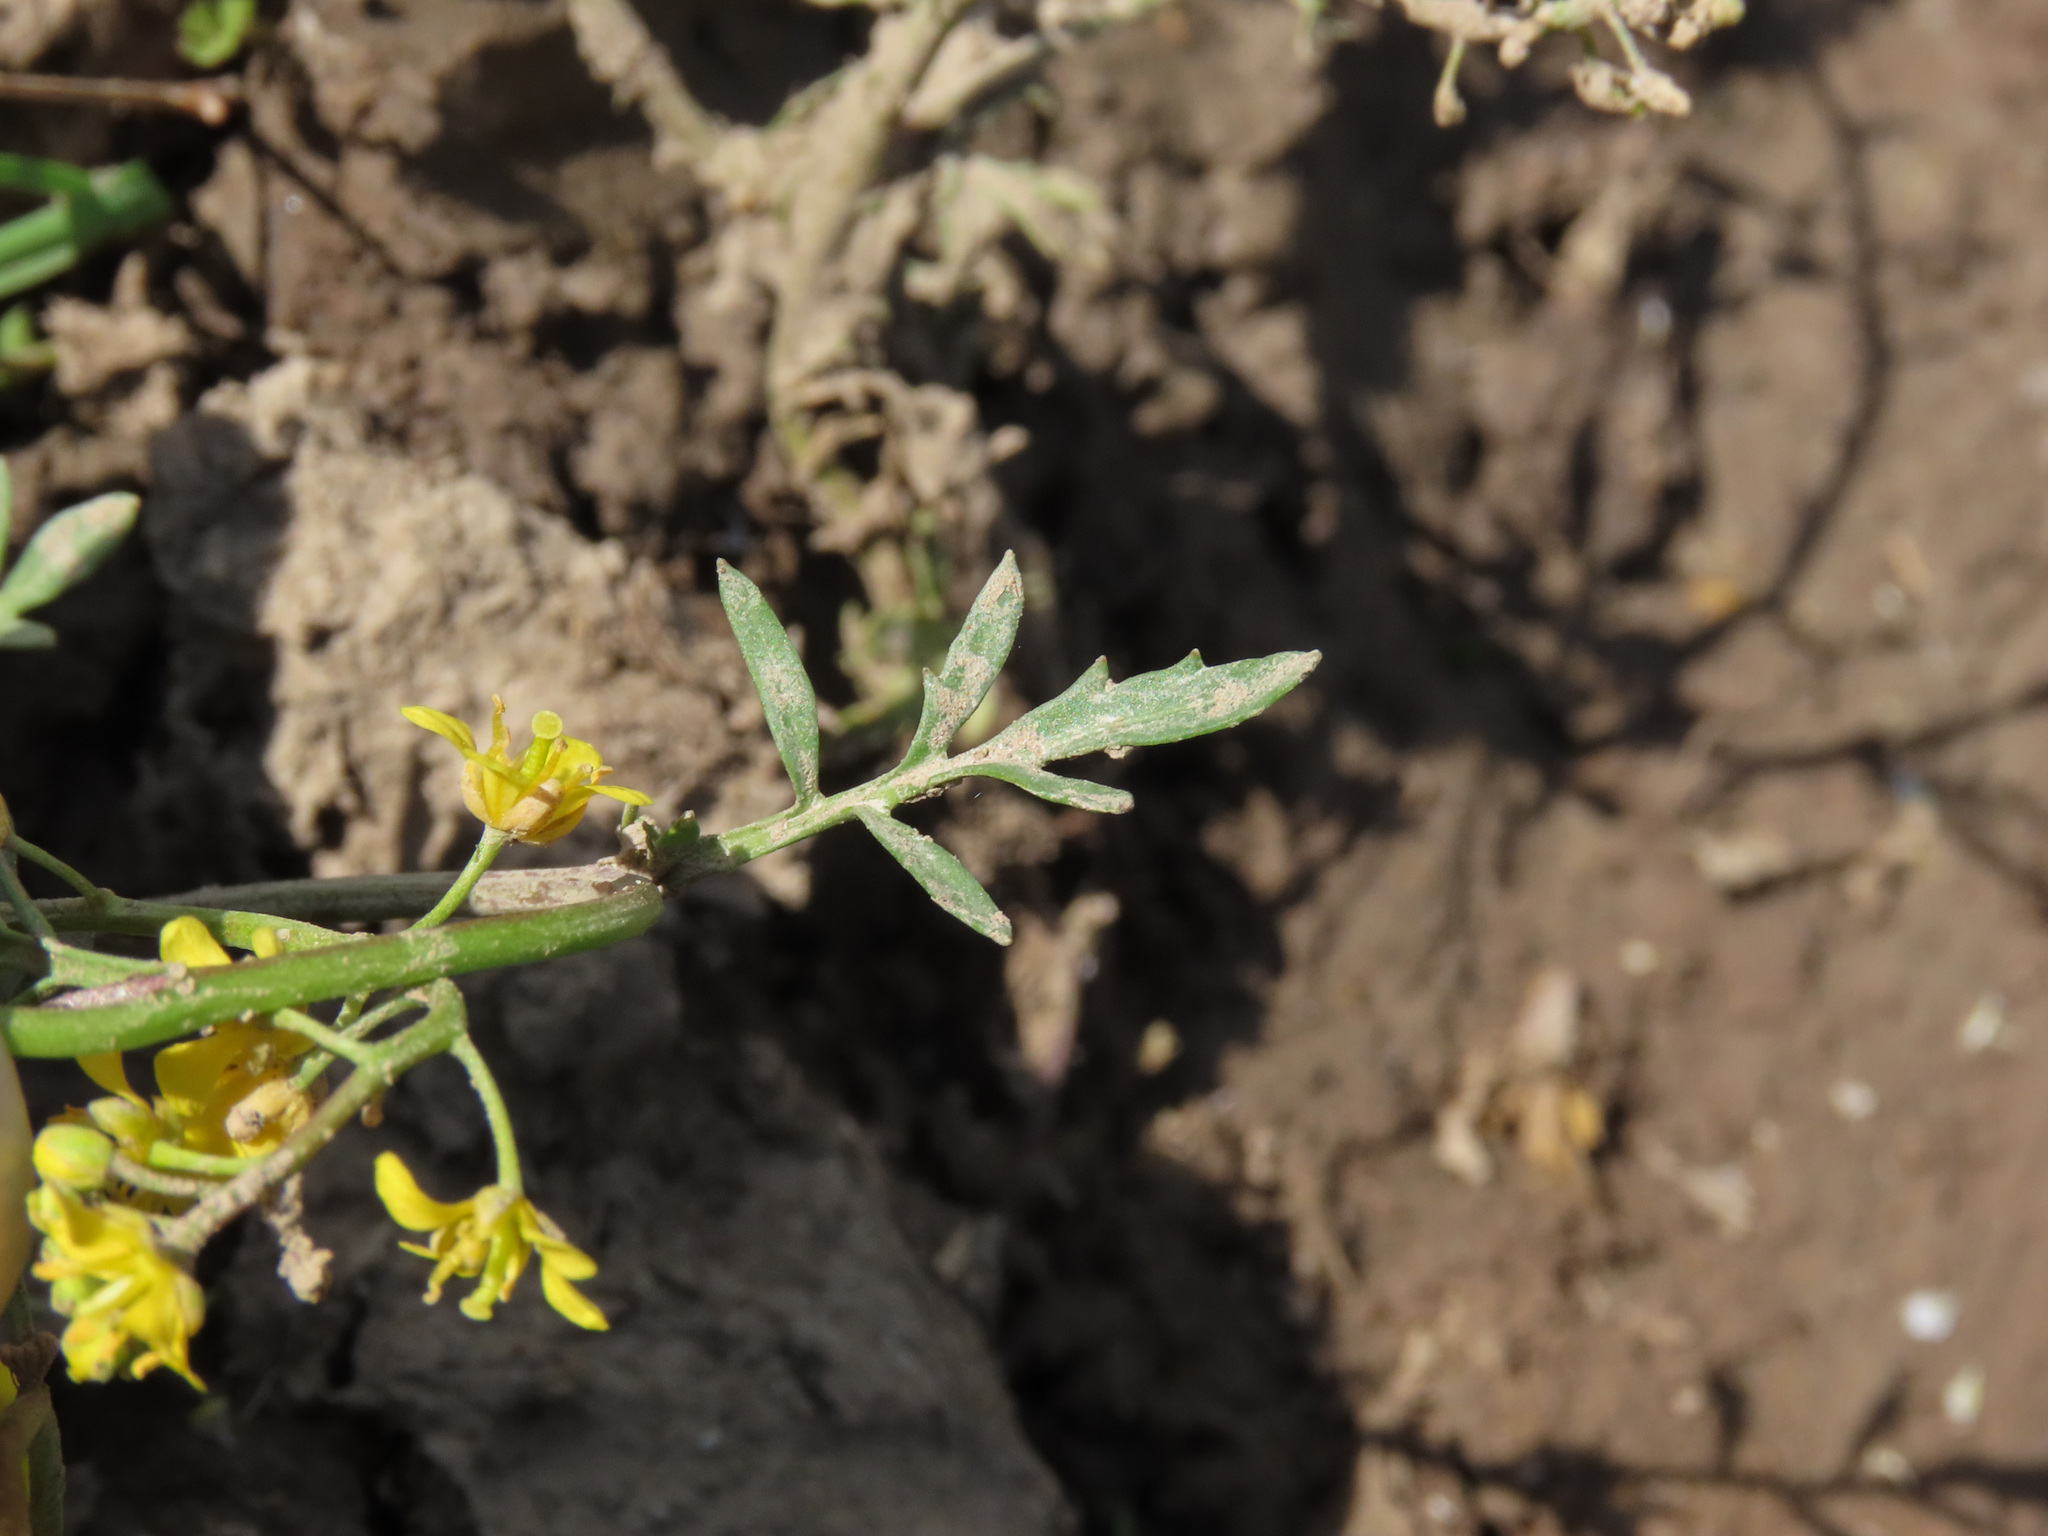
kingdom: Plantae
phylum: Tracheophyta
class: Magnoliopsida
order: Brassicales
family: Brassicaceae
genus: Rorippa
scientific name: Rorippa sylvestris
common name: Creeping yellowcress
